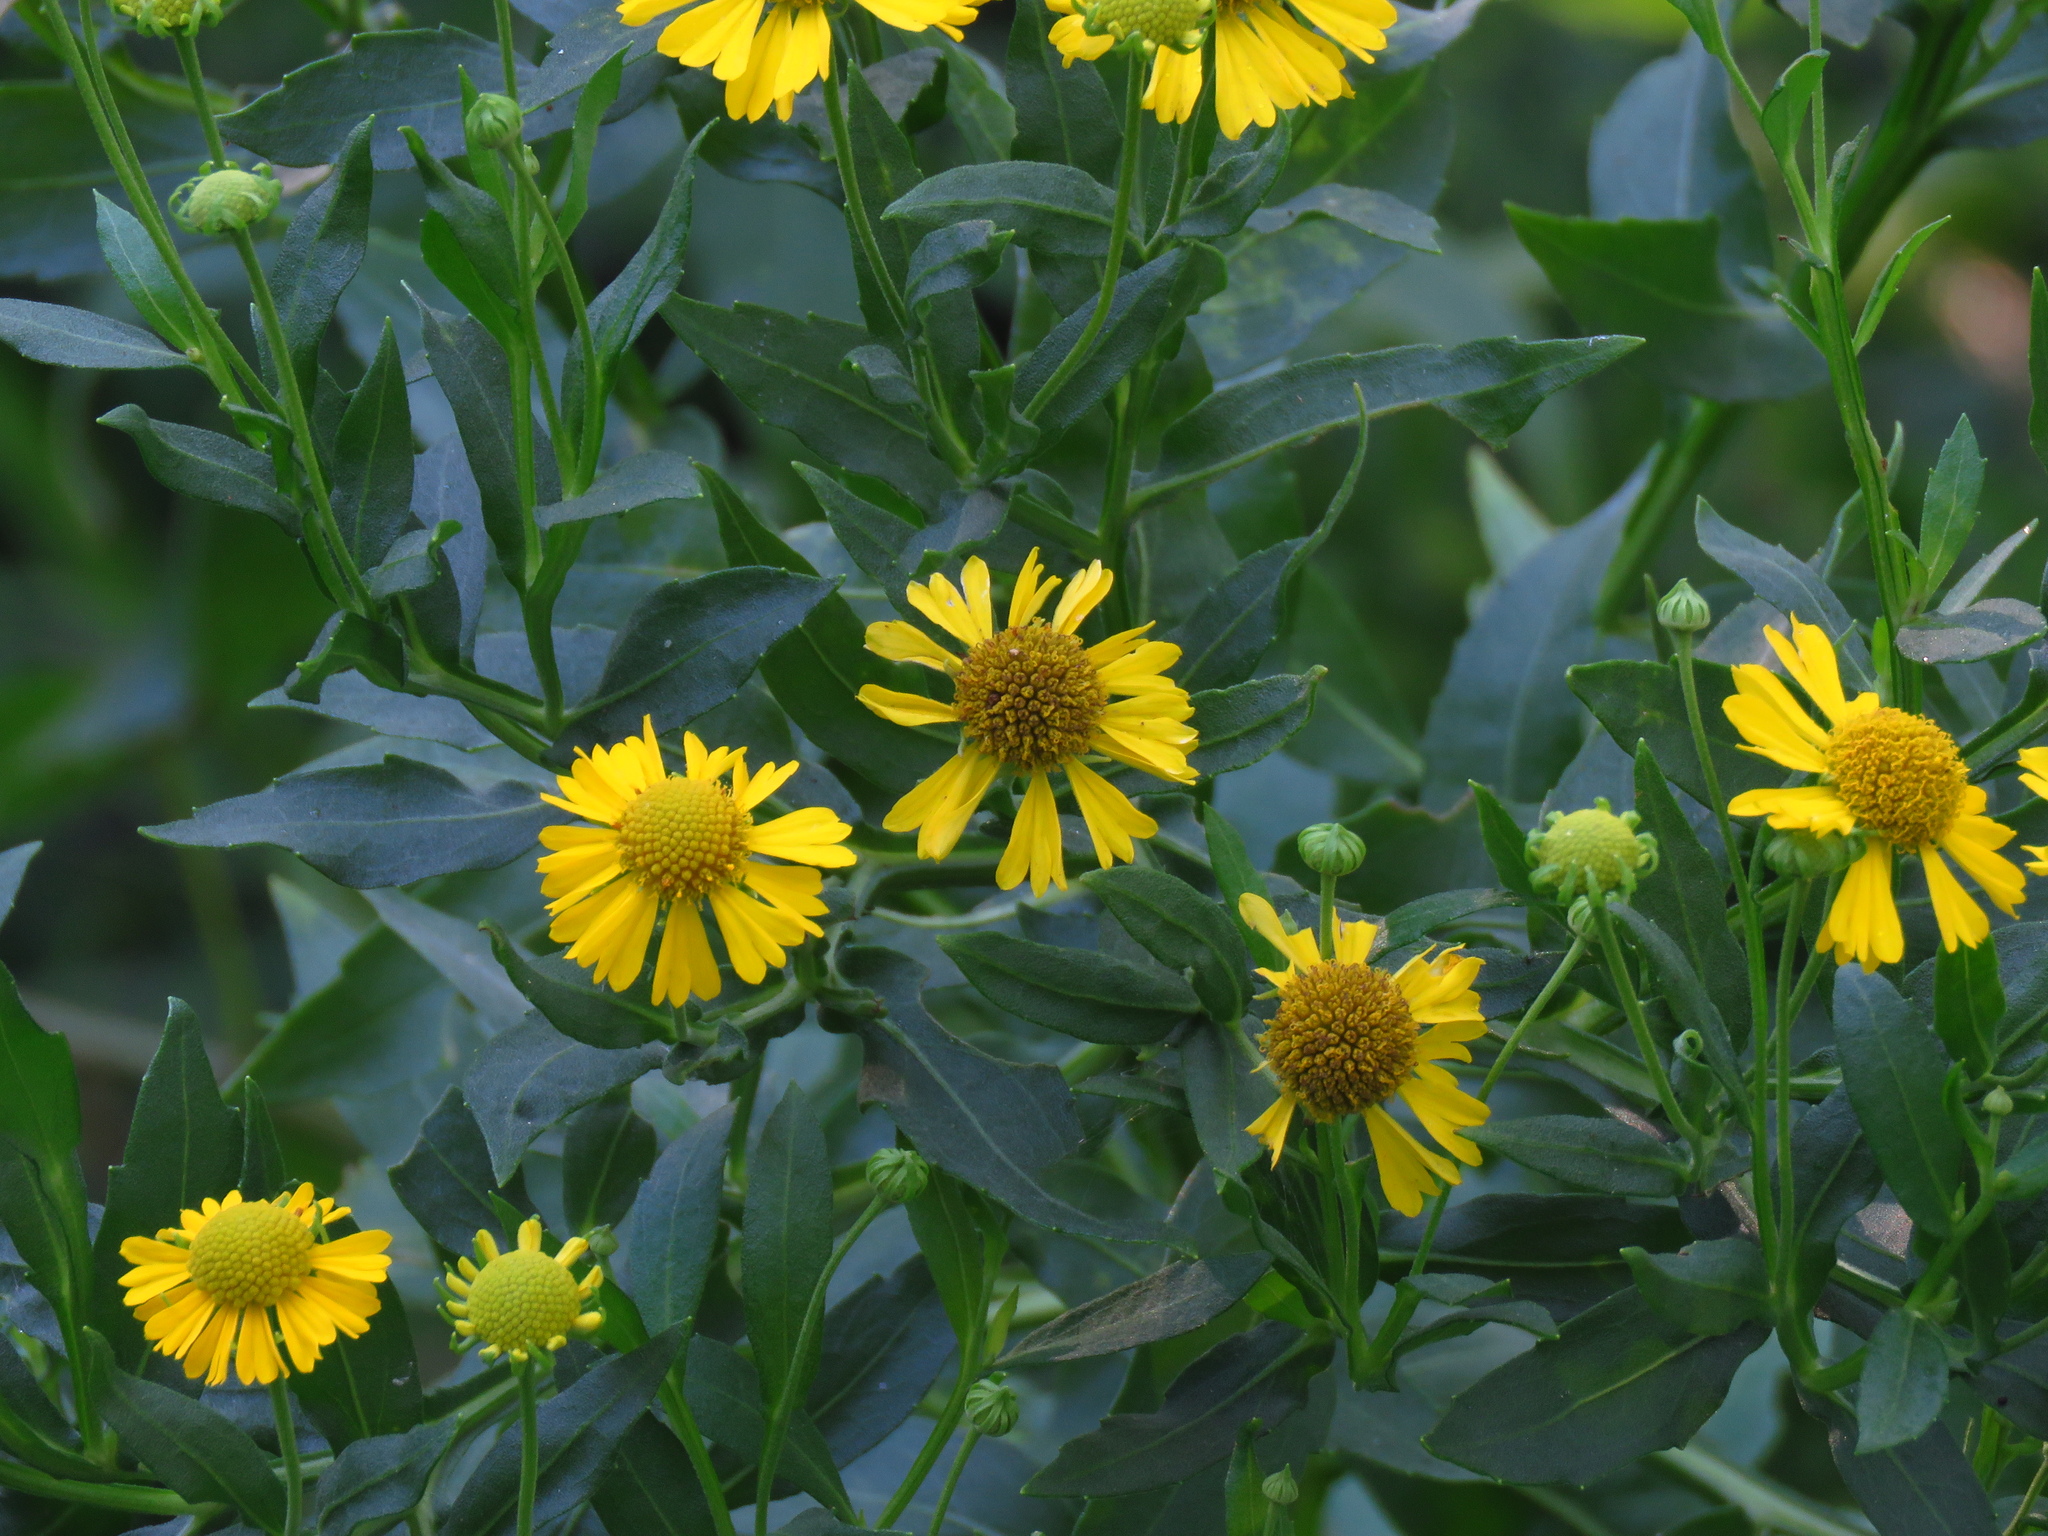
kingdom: Plantae
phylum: Tracheophyta
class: Magnoliopsida
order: Asterales
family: Asteraceae
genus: Helenium
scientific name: Helenium autumnale
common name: Sneezeweed
